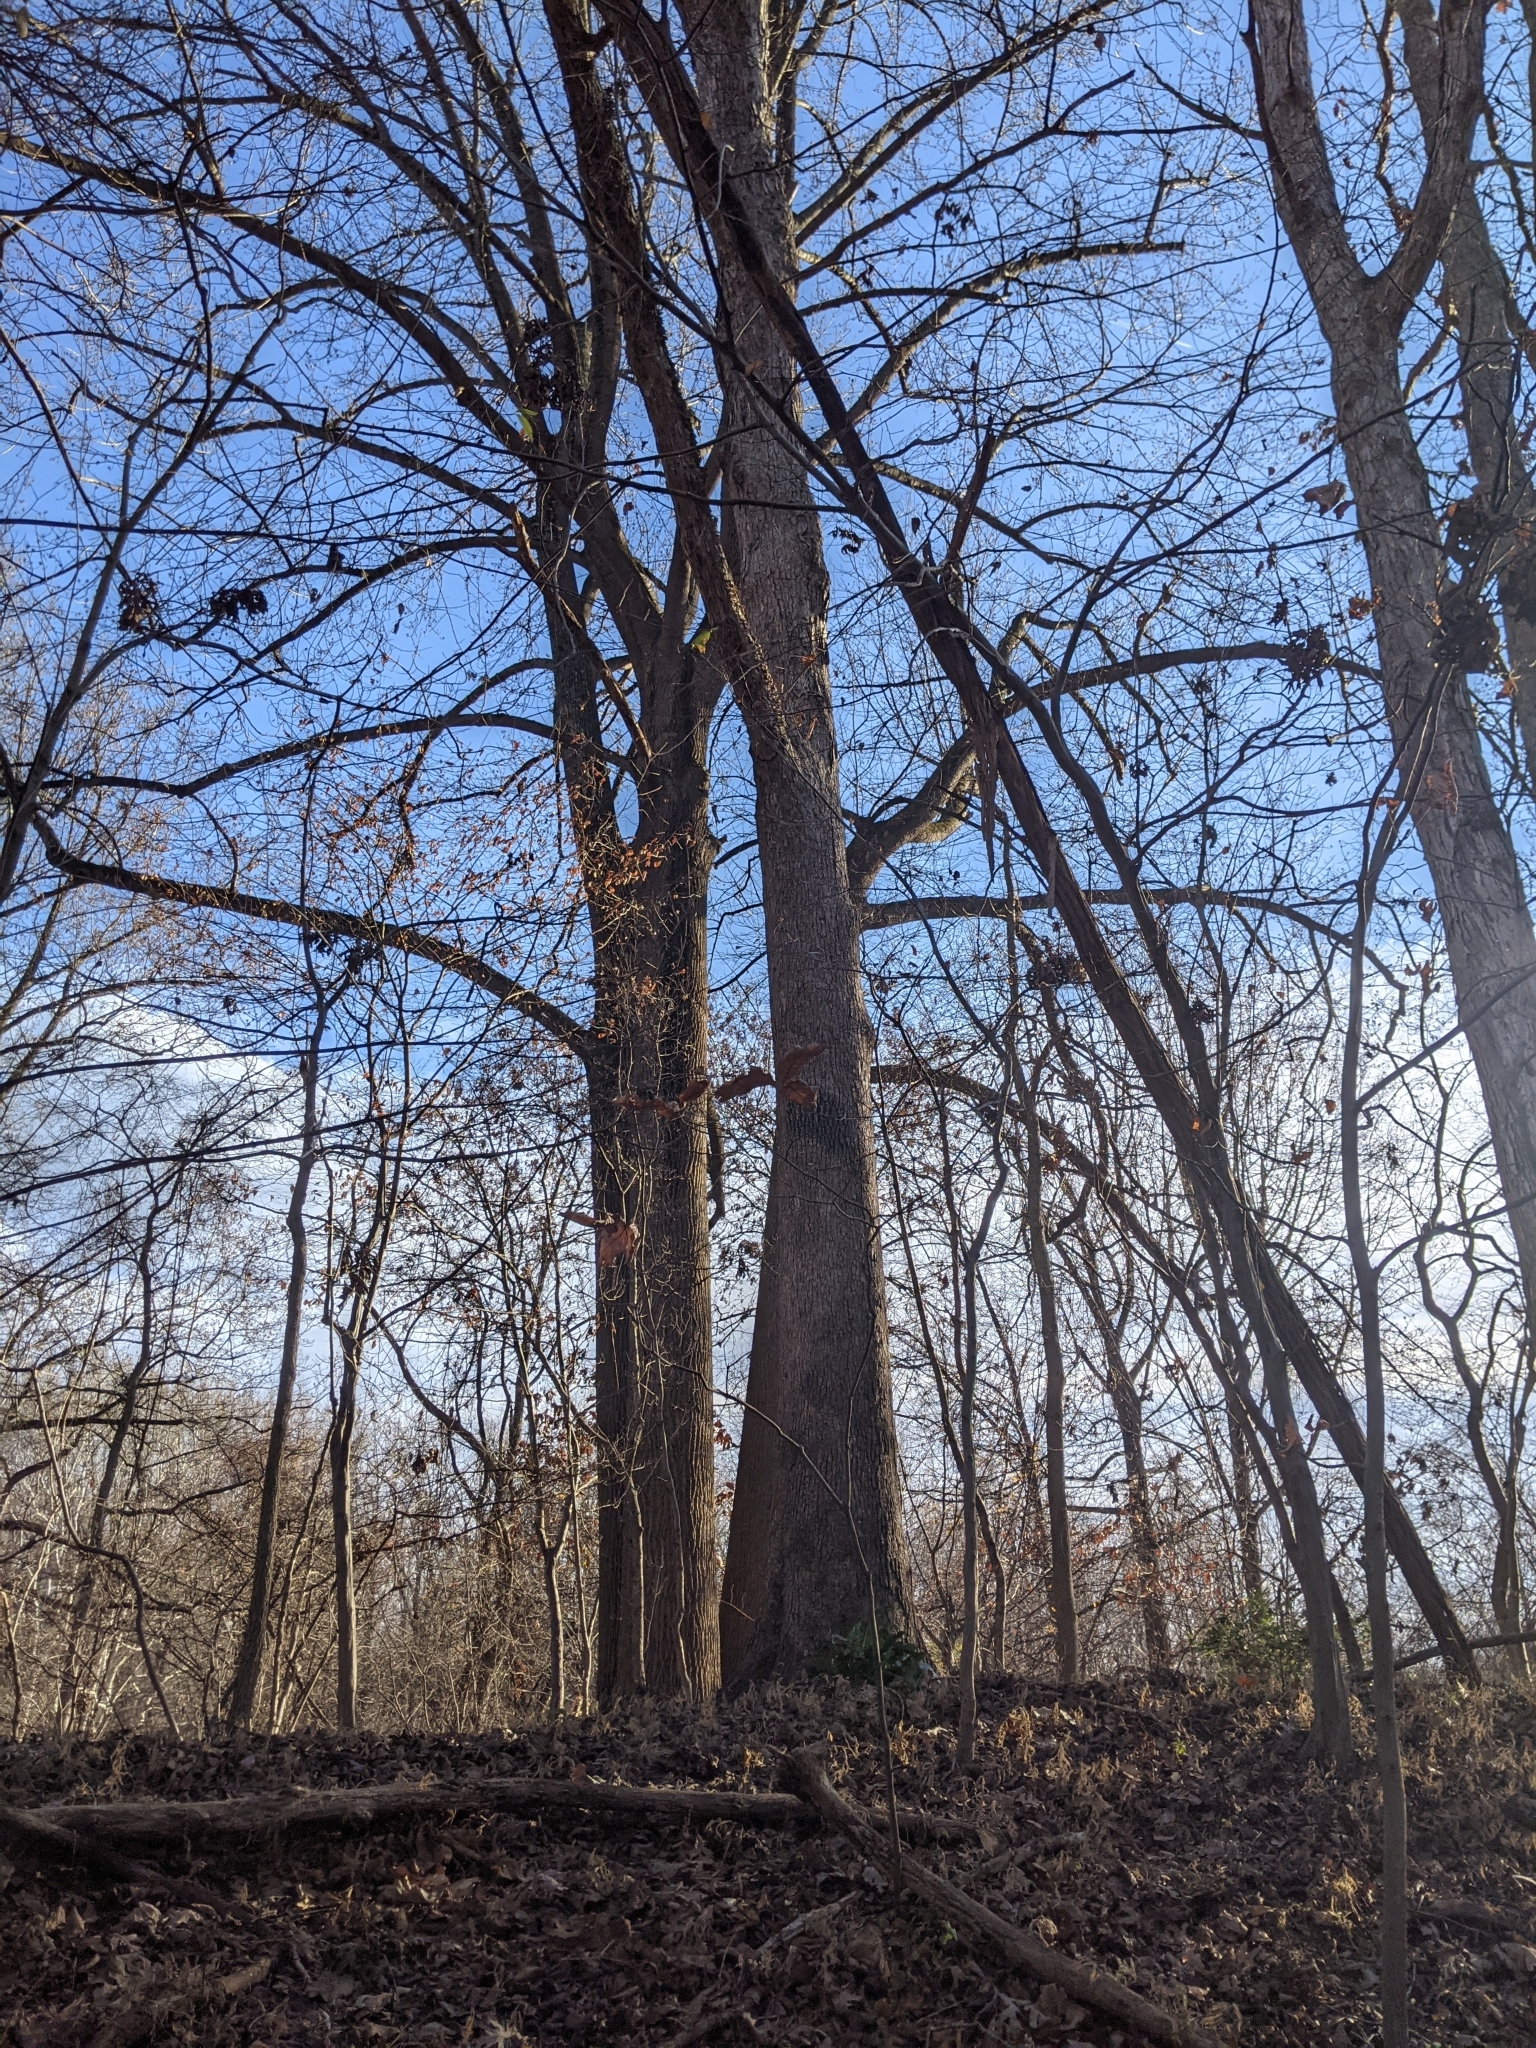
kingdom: Plantae
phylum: Tracheophyta
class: Magnoliopsida
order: Fagales
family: Fagaceae
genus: Quercus
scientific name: Quercus alba
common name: White oak
